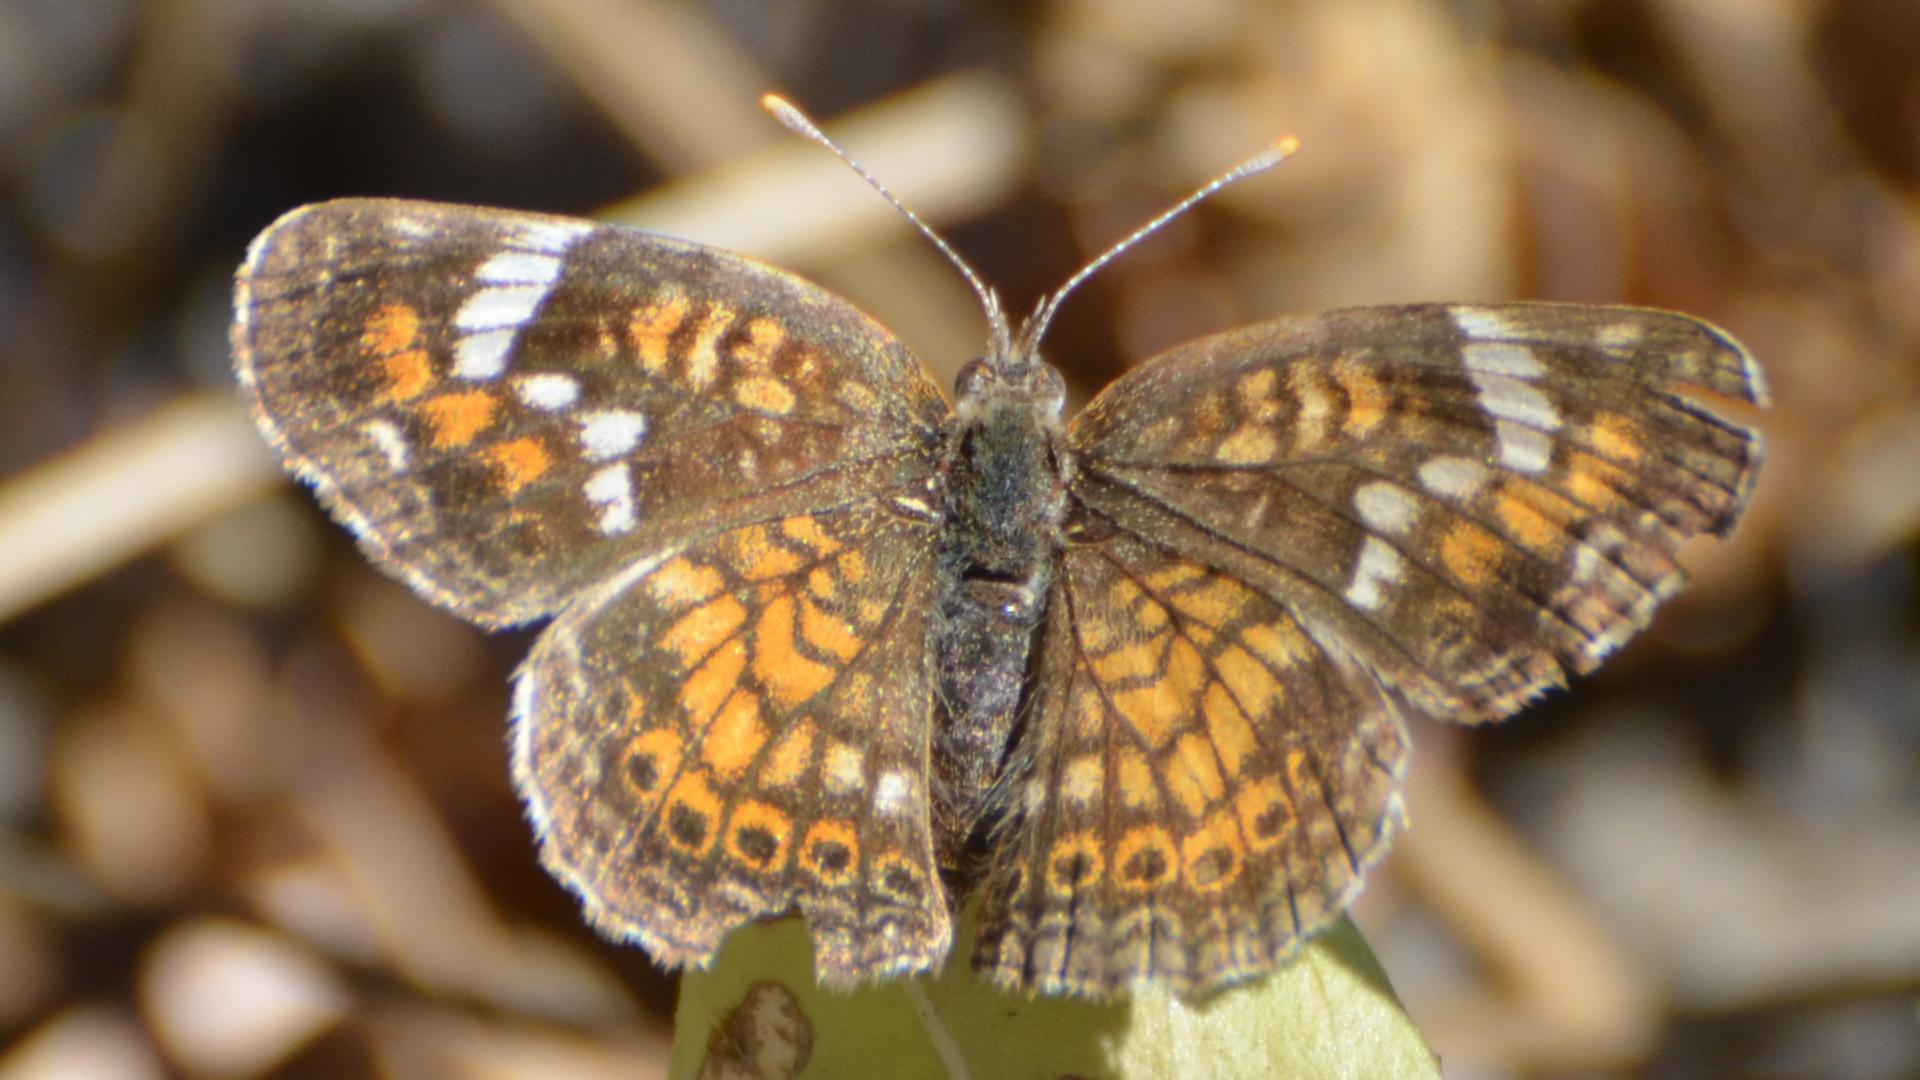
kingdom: Animalia
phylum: Arthropoda
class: Insecta
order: Lepidoptera
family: Nymphalidae
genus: Phyciodes
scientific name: Phyciodes phaon
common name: Phaon crescent
